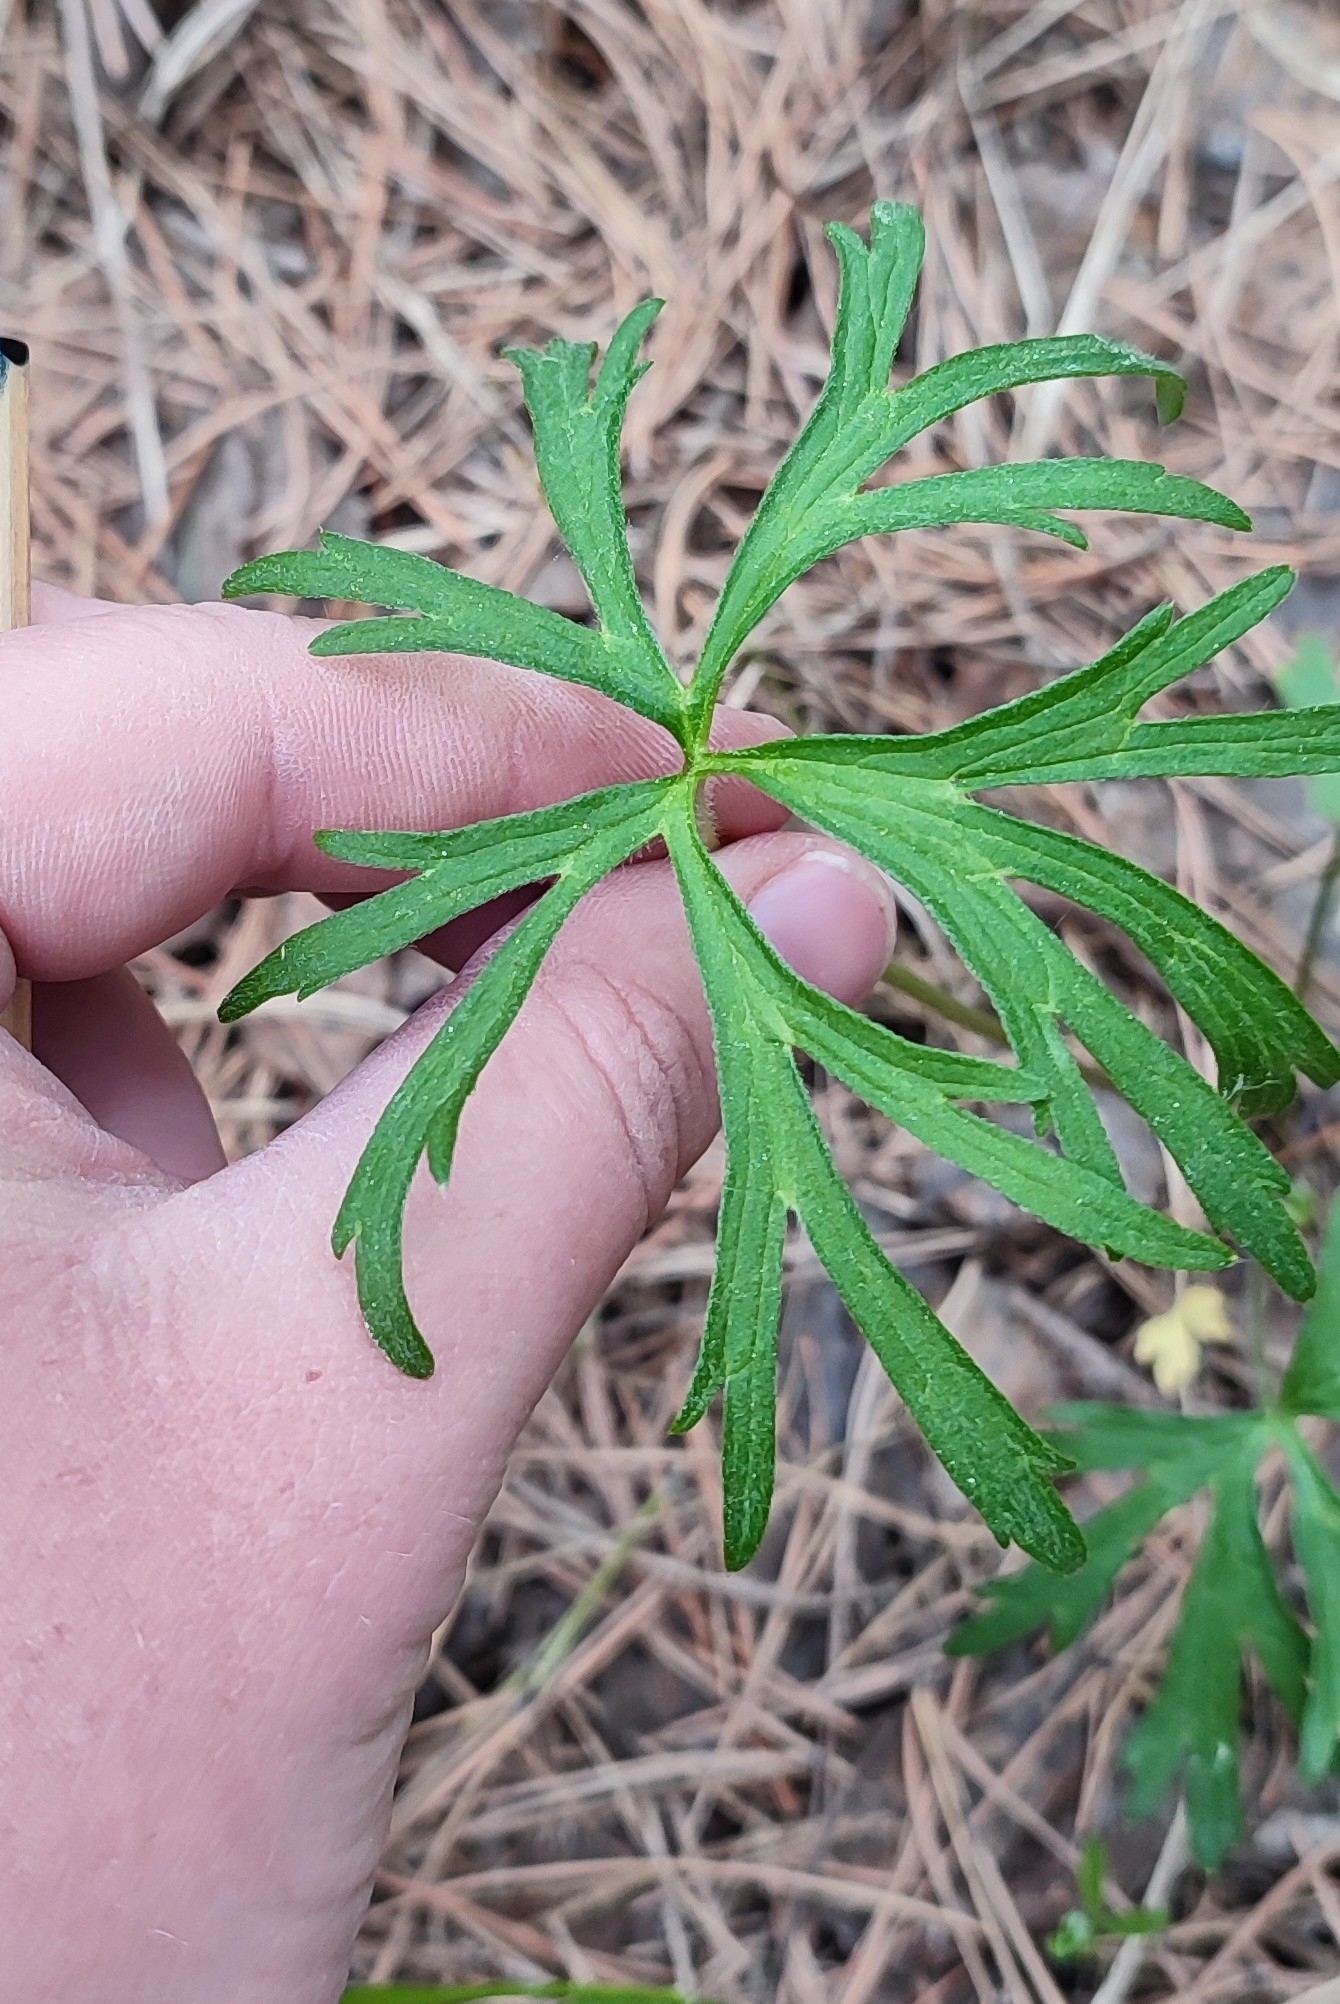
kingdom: Plantae
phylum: Tracheophyta
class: Magnoliopsida
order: Ranunculales
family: Ranunculaceae
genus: Ranunculus
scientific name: Ranunculus polyanthemos
